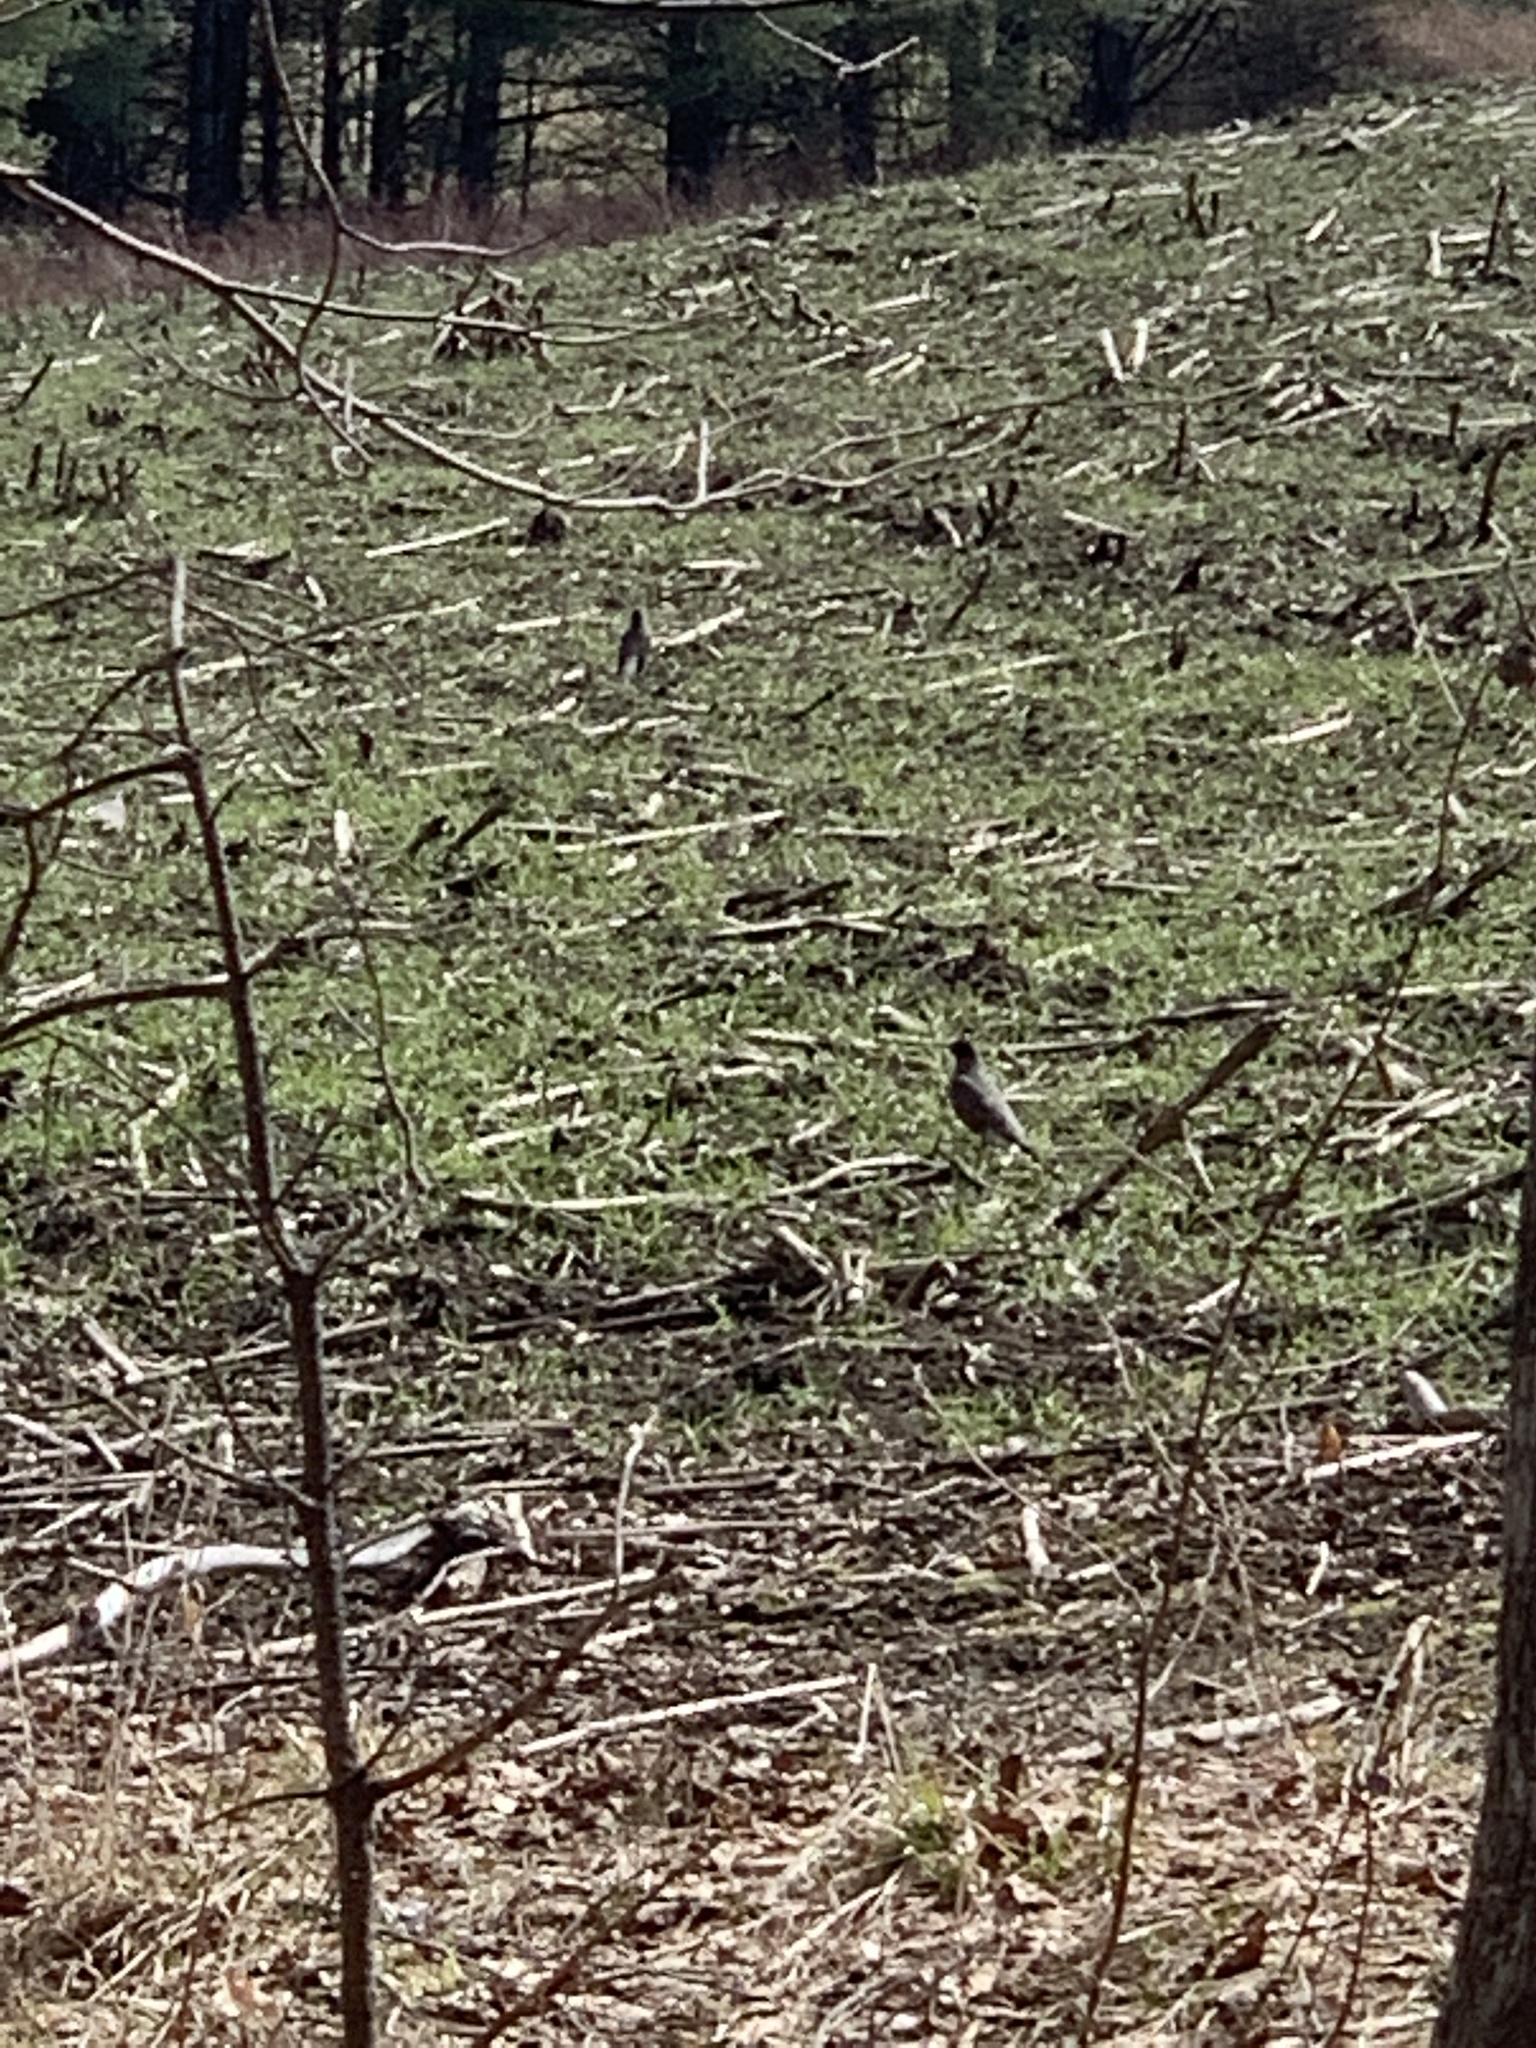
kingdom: Animalia
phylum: Chordata
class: Aves
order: Passeriformes
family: Turdidae
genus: Turdus
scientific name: Turdus migratorius
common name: American robin
